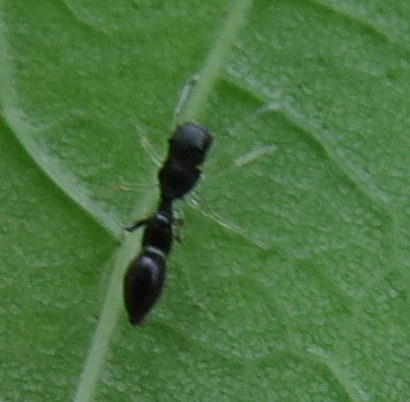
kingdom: Animalia
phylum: Arthropoda
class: Arachnida
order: Araneae
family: Salticidae
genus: Synemosyna
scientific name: Synemosyna formica
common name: Slender ant-mimic jumping spider
